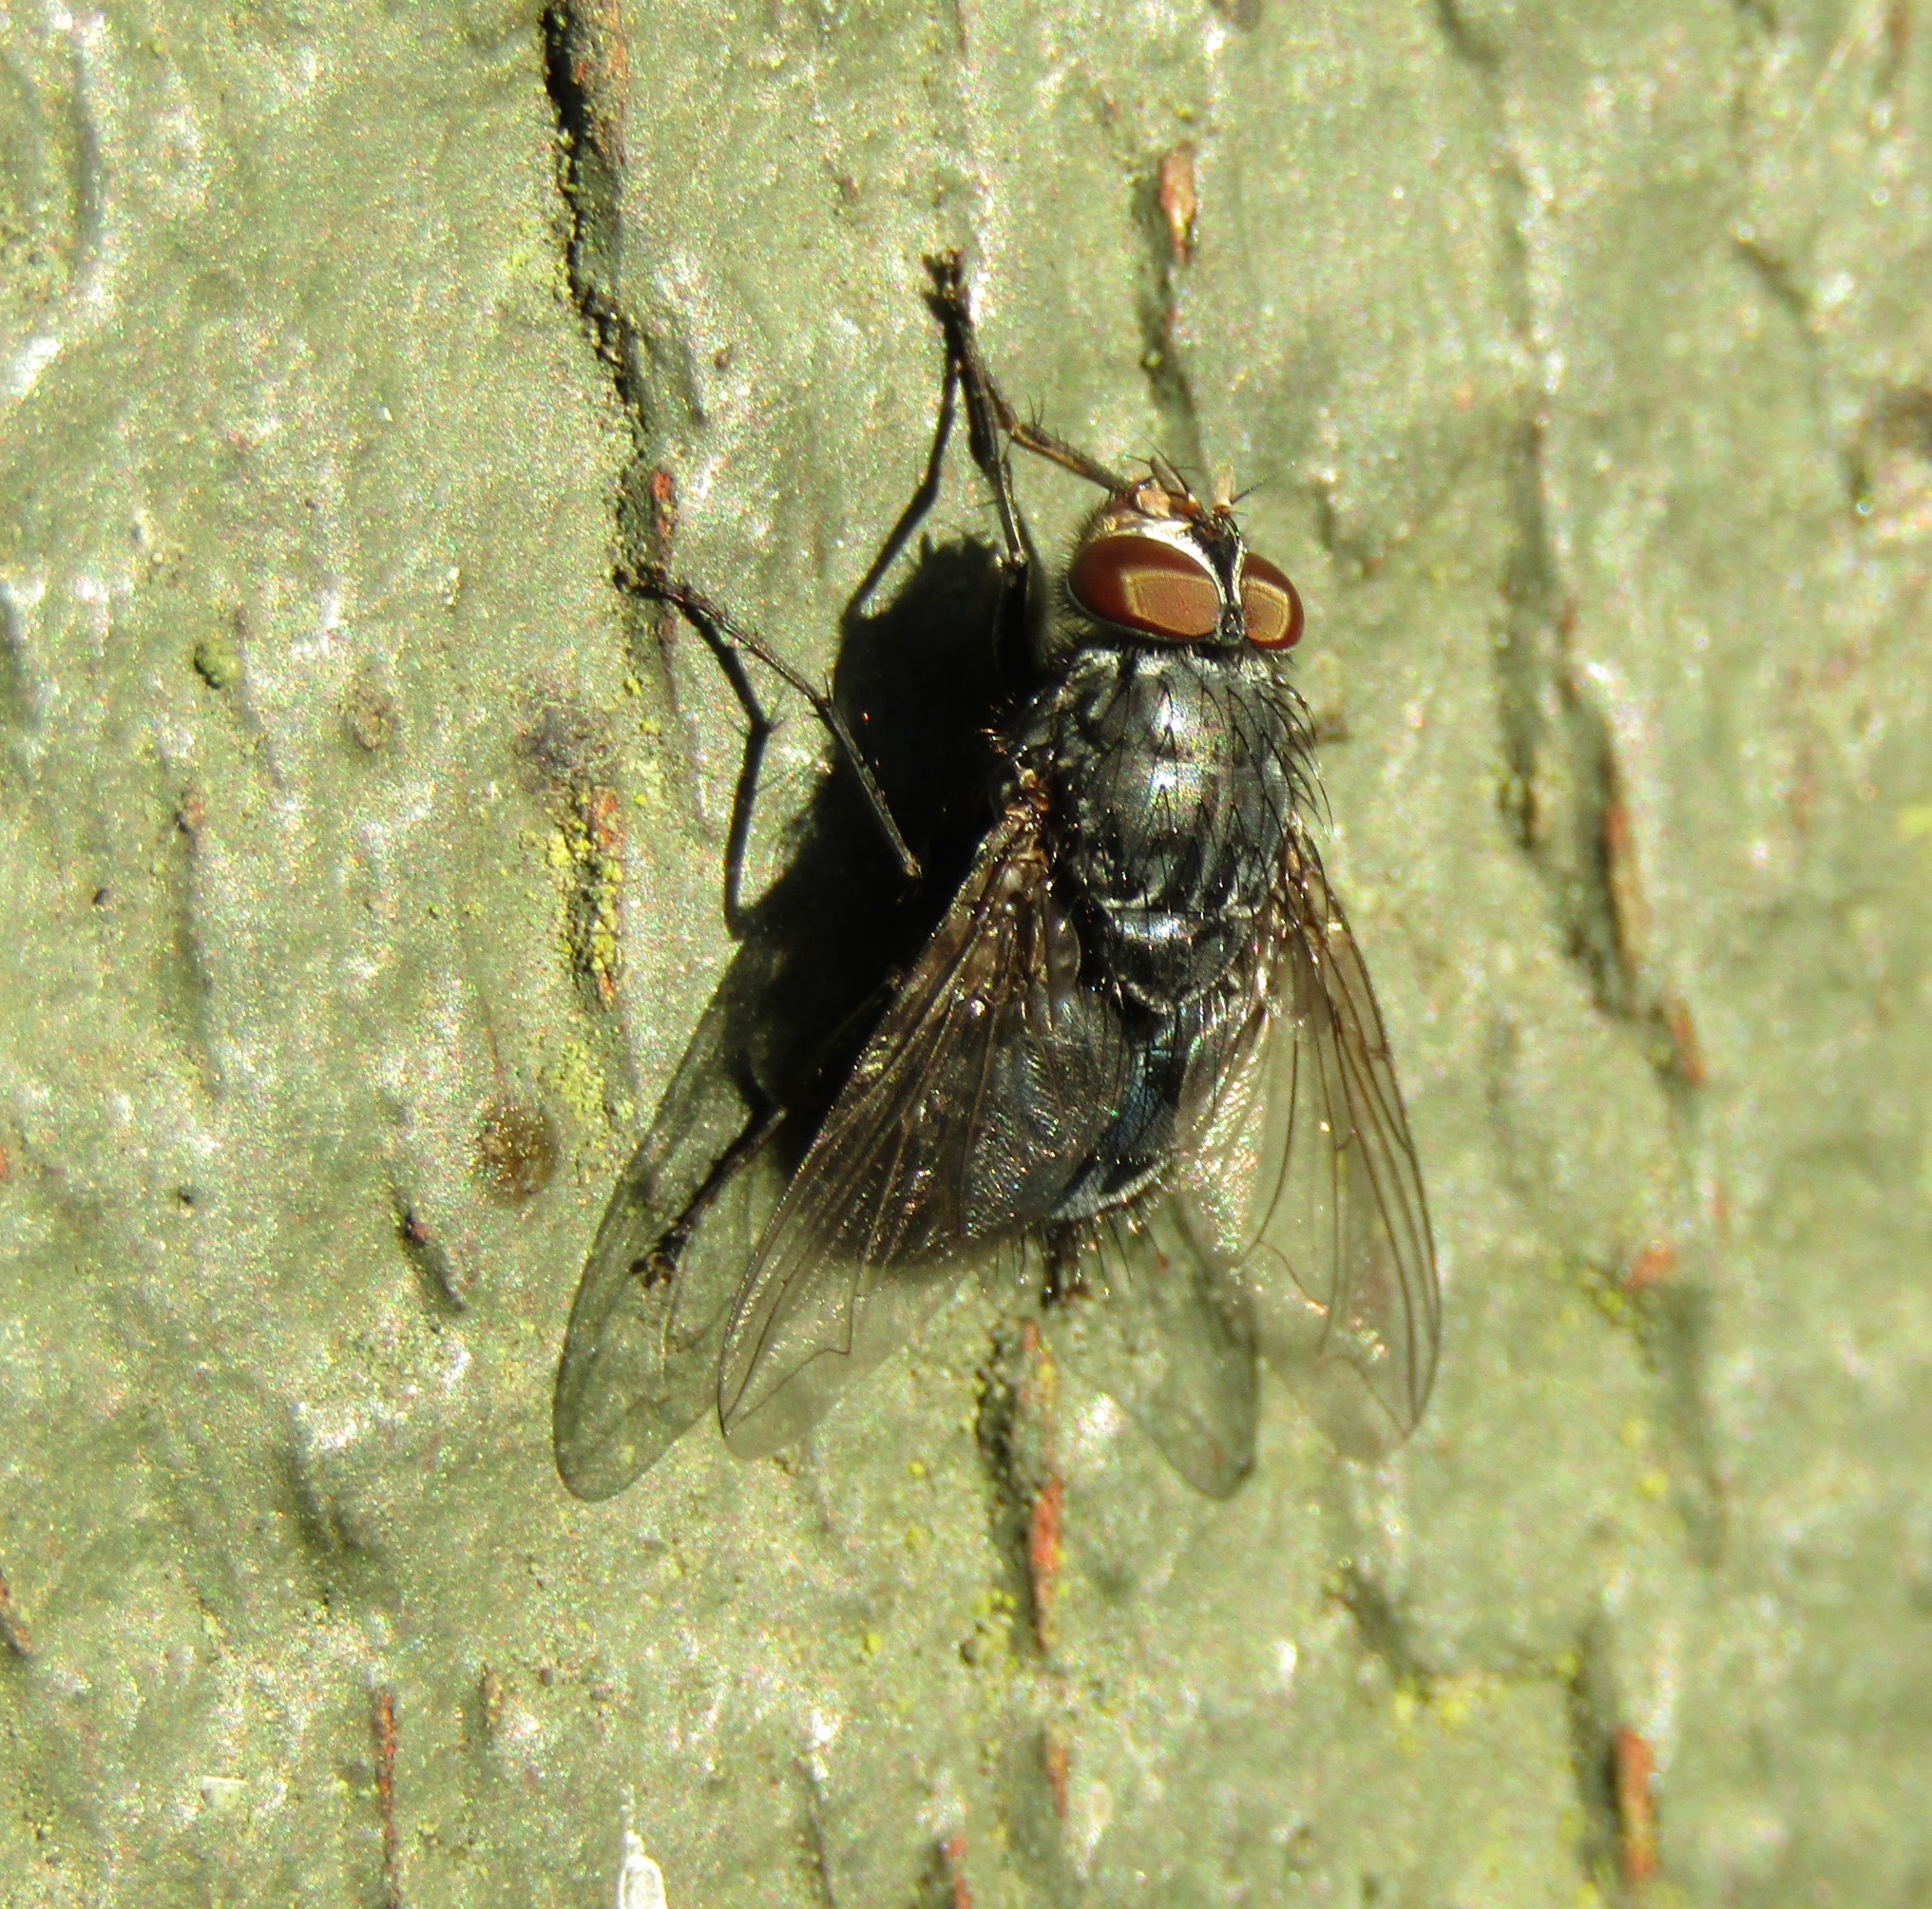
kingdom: Animalia
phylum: Arthropoda
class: Insecta
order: Diptera
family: Calliphoridae
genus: Calliphora
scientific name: Calliphora vicina
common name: Common blow flie
